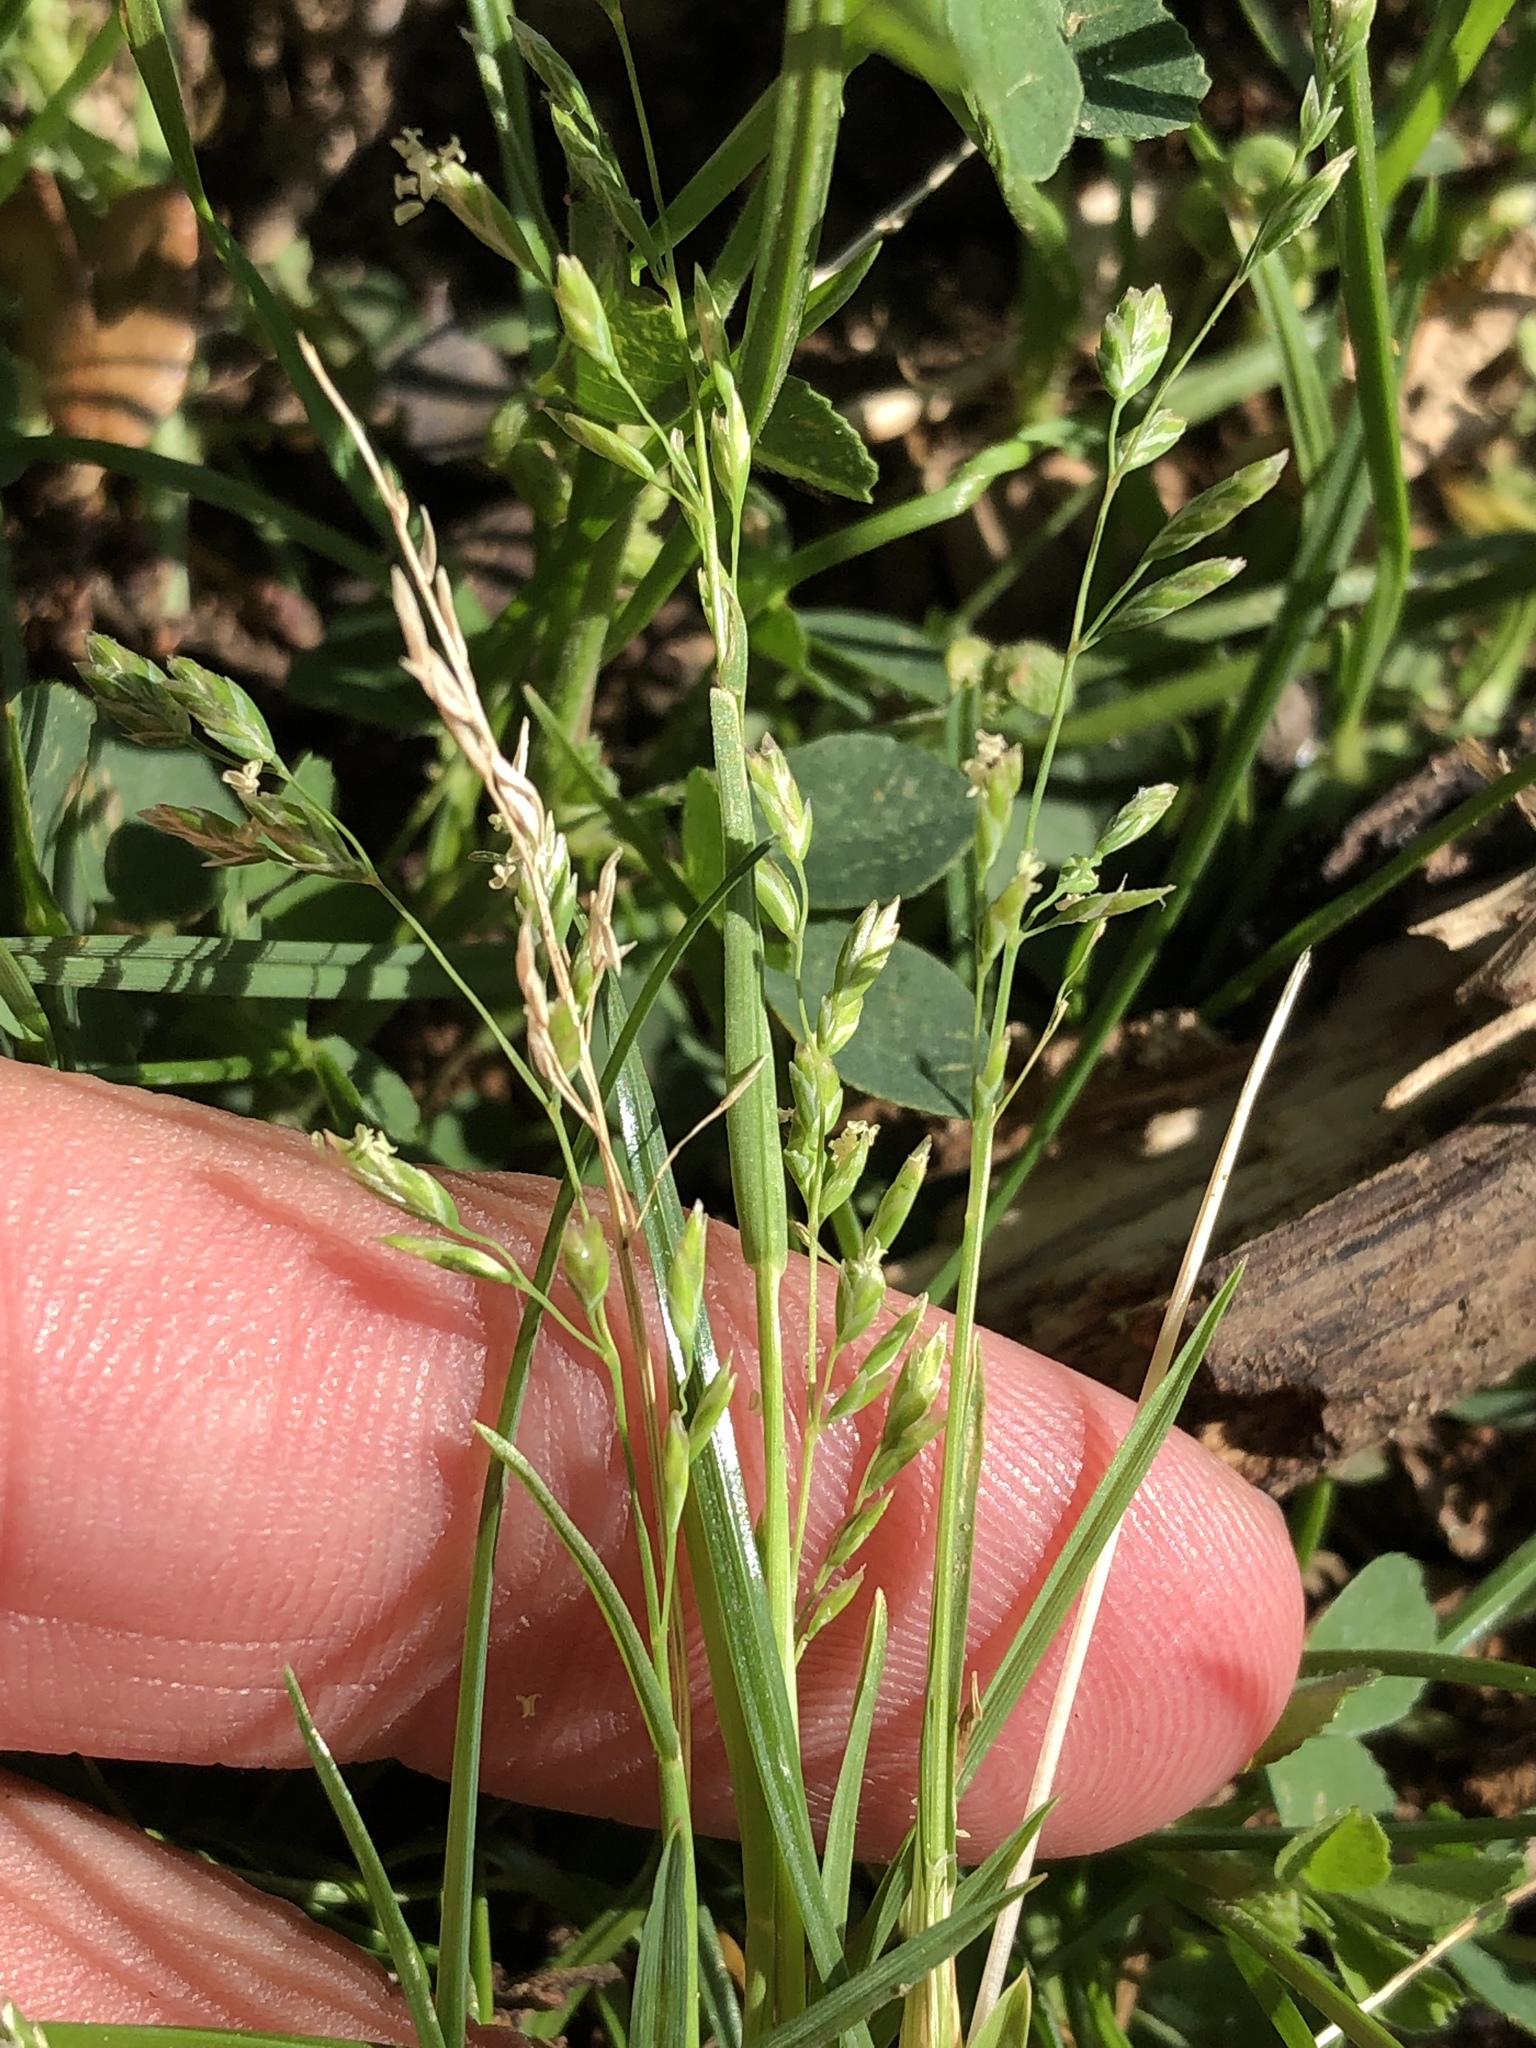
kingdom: Plantae
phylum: Tracheophyta
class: Liliopsida
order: Poales
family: Poaceae
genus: Poa
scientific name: Poa annua
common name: Annual bluegrass
